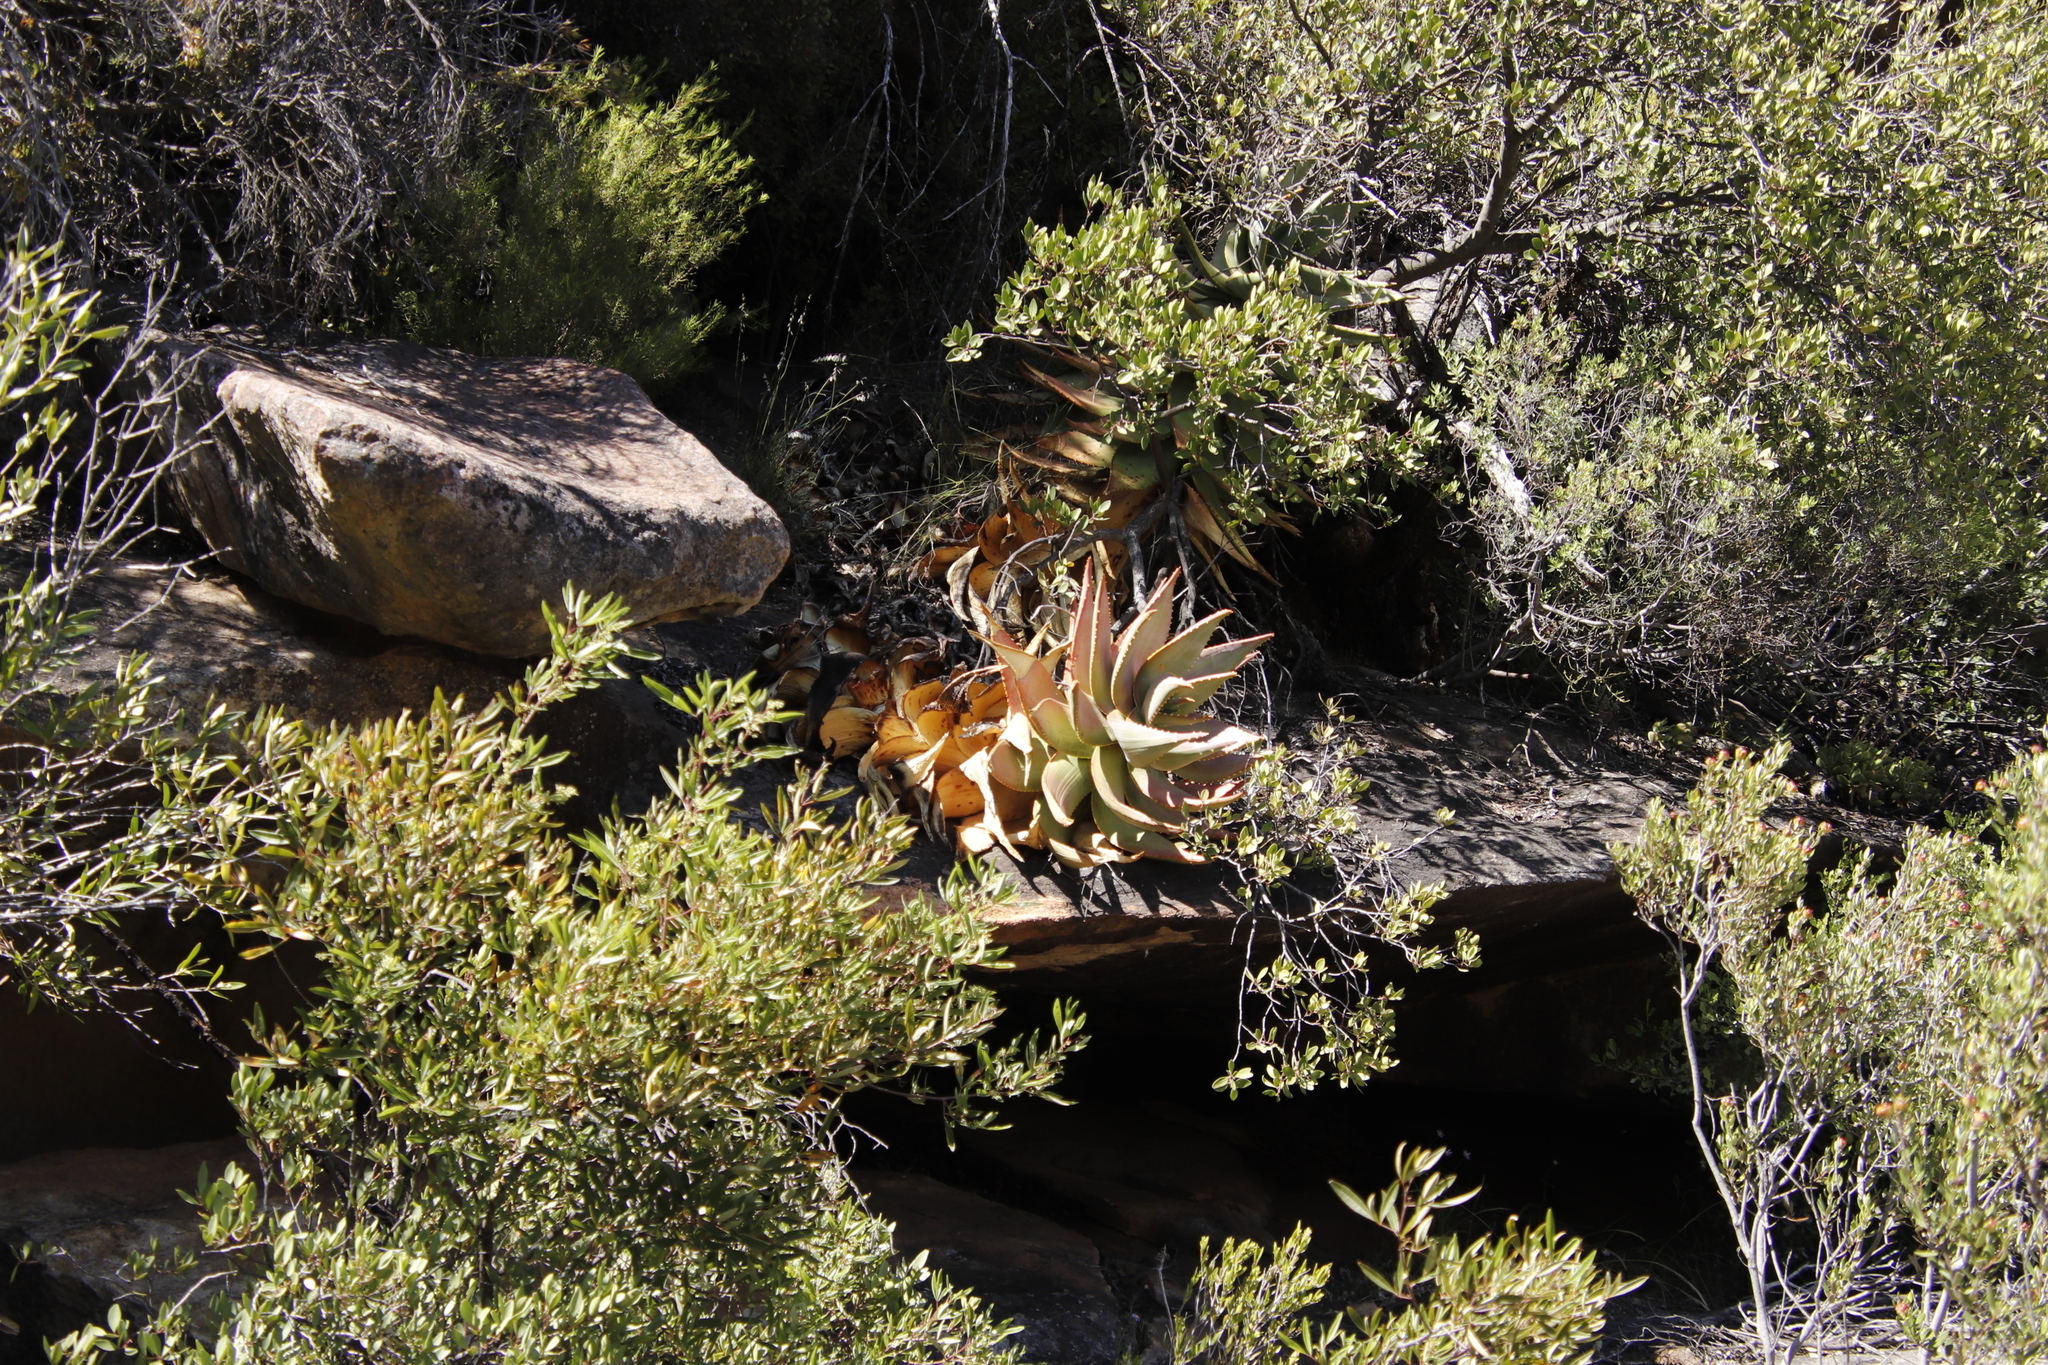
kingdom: Plantae
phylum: Tracheophyta
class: Liliopsida
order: Asparagales
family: Asphodelaceae
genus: Aloe
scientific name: Aloe perfoliata
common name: Mitra aloe
